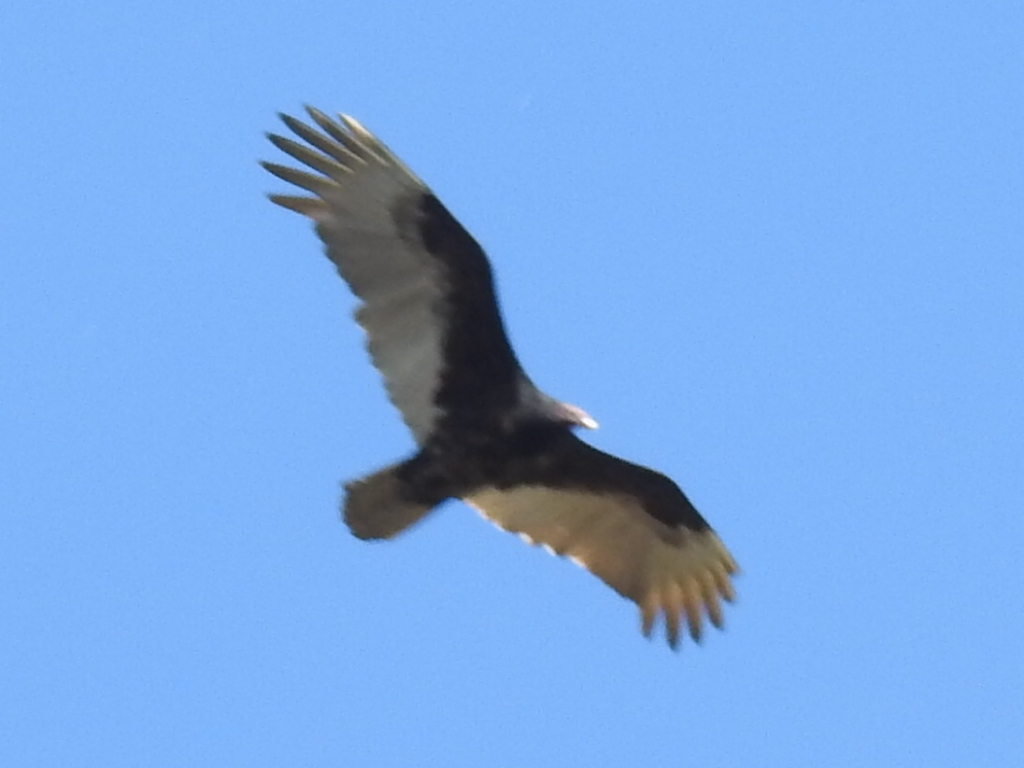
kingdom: Animalia
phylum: Chordata
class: Aves
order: Accipitriformes
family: Cathartidae
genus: Cathartes
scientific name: Cathartes aura
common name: Turkey vulture
